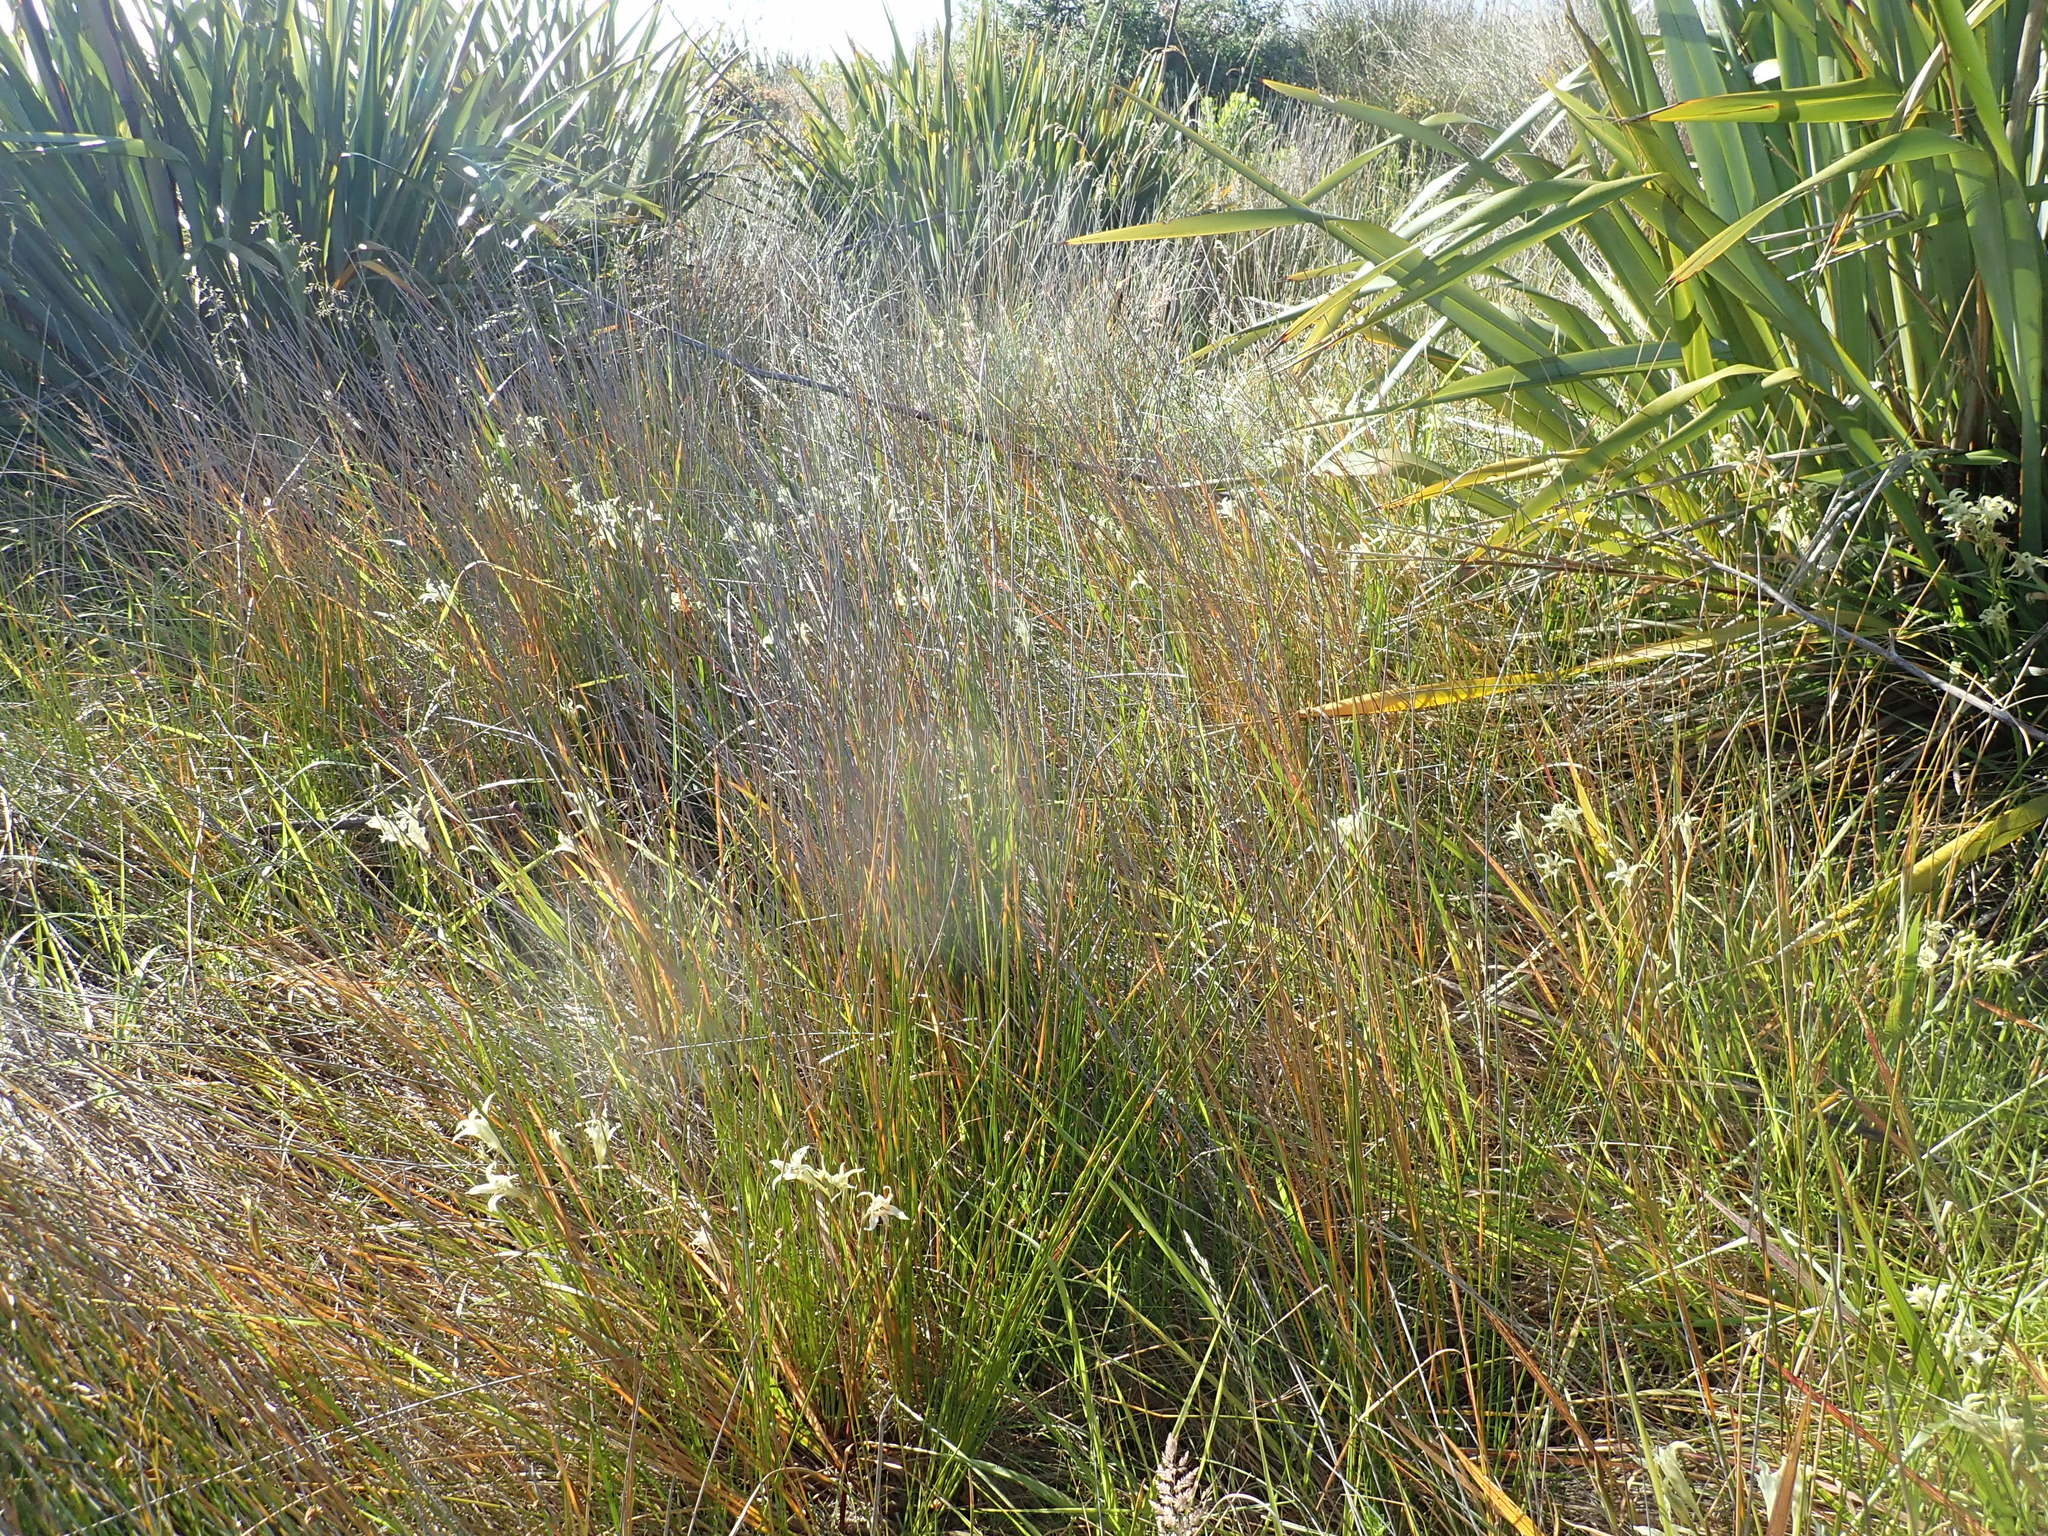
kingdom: Plantae
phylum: Tracheophyta
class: Liliopsida
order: Asparagales
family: Iridaceae
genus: Gladiolus
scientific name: Gladiolus undulatus
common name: Large painted-lady
